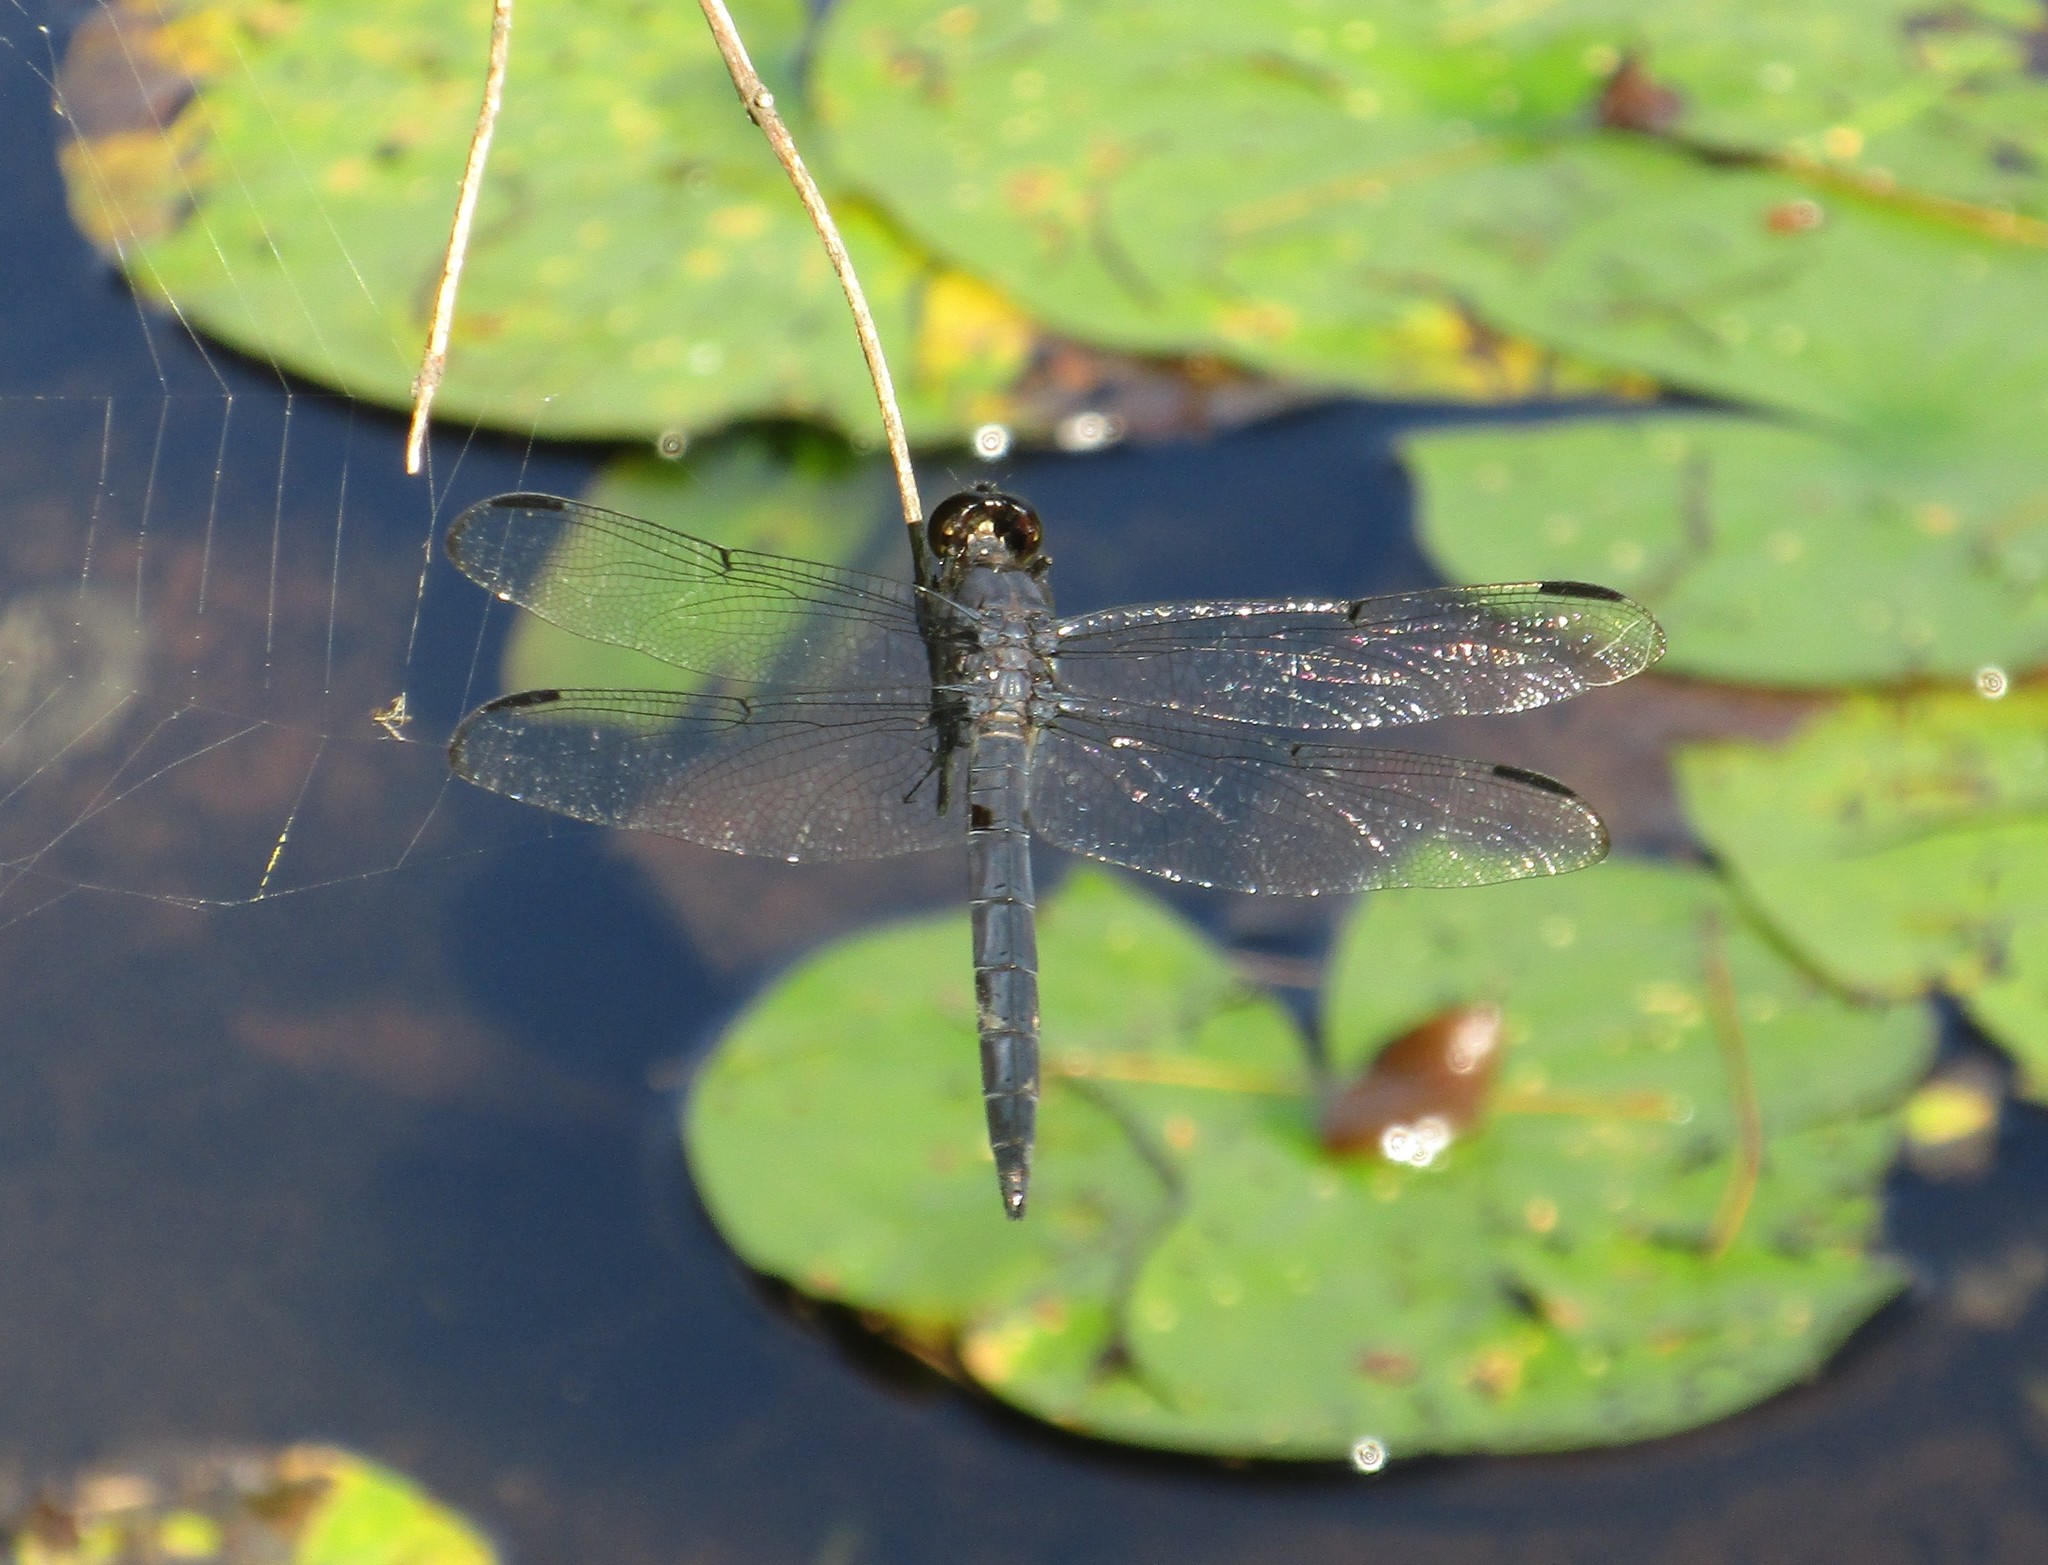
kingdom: Animalia
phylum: Arthropoda
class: Insecta
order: Odonata
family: Libellulidae
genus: Libellula
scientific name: Libellula incesta
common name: Slaty skimmer
